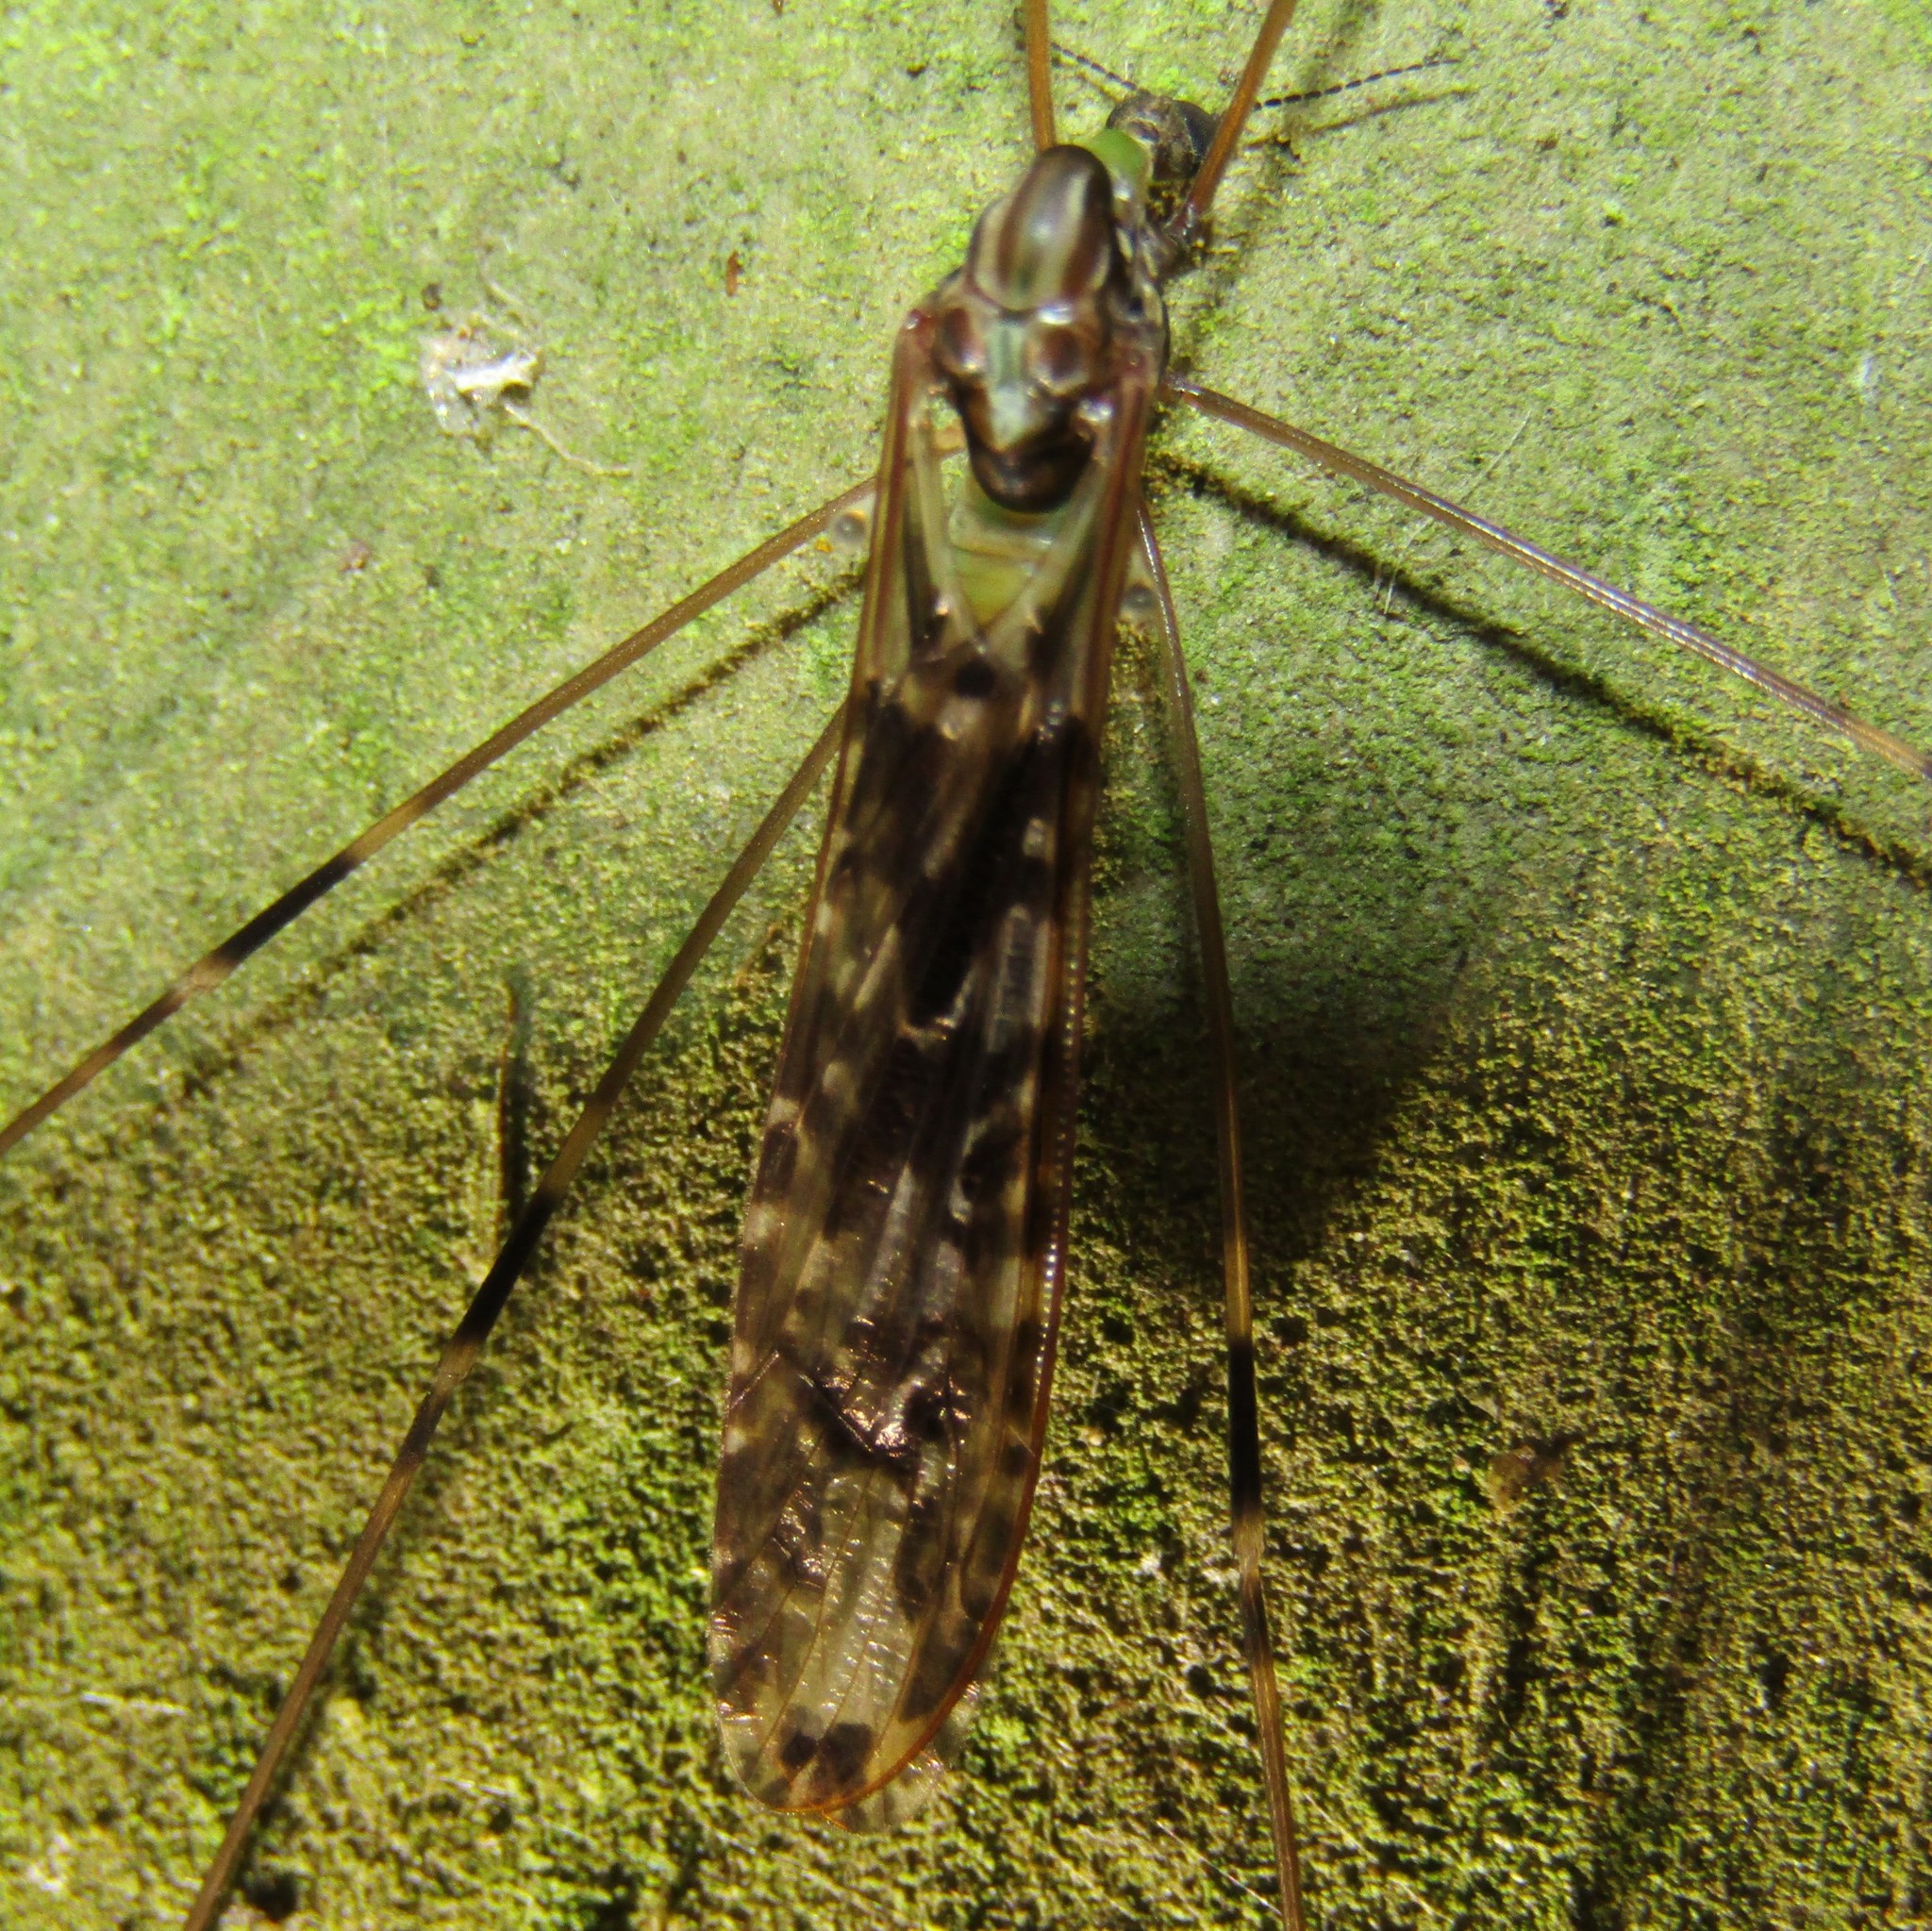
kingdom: Animalia
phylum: Arthropoda
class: Insecta
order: Diptera
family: Limoniidae
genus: Discobola
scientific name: Discobola dohrni
